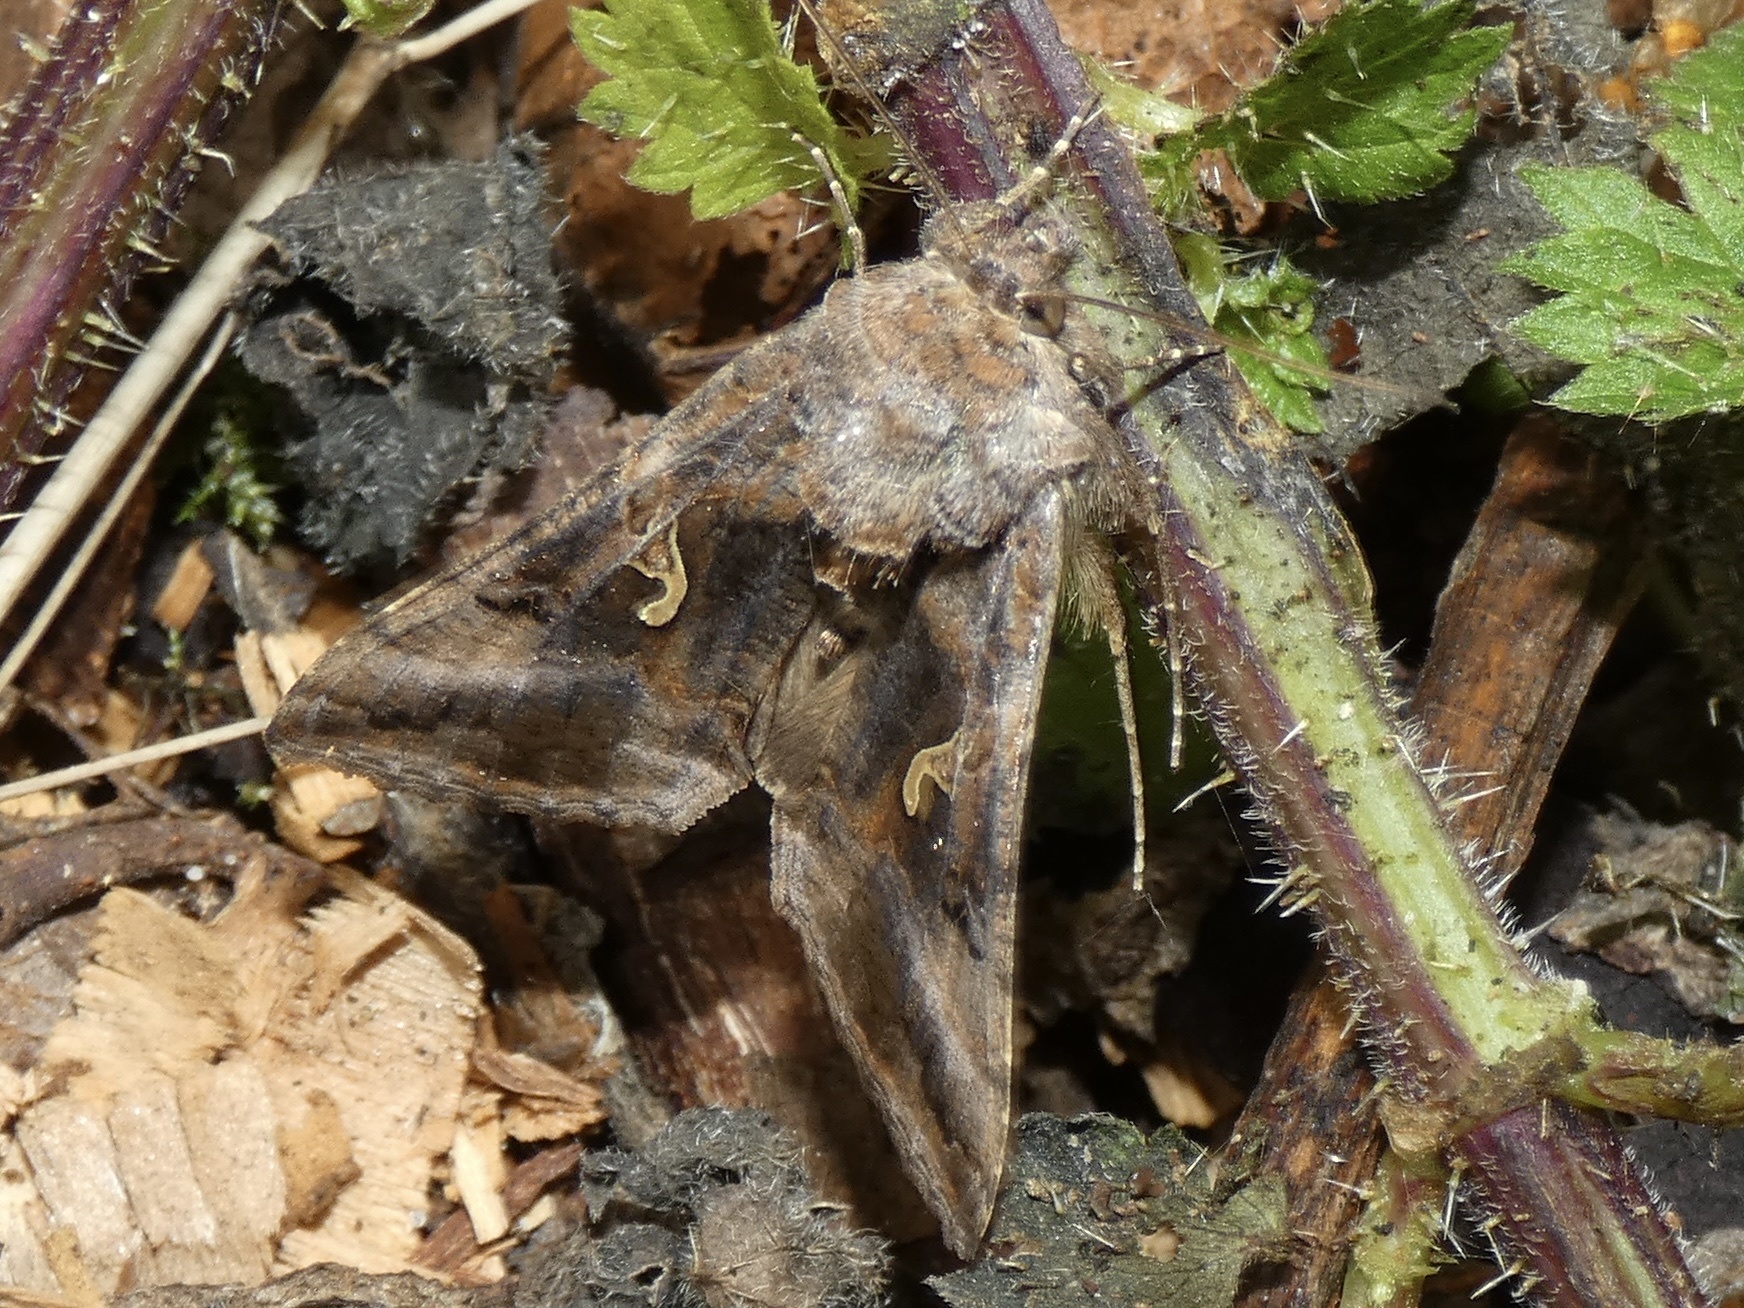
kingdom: Animalia
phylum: Arthropoda
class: Insecta
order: Lepidoptera
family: Noctuidae
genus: Autographa
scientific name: Autographa gamma
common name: Silver y
